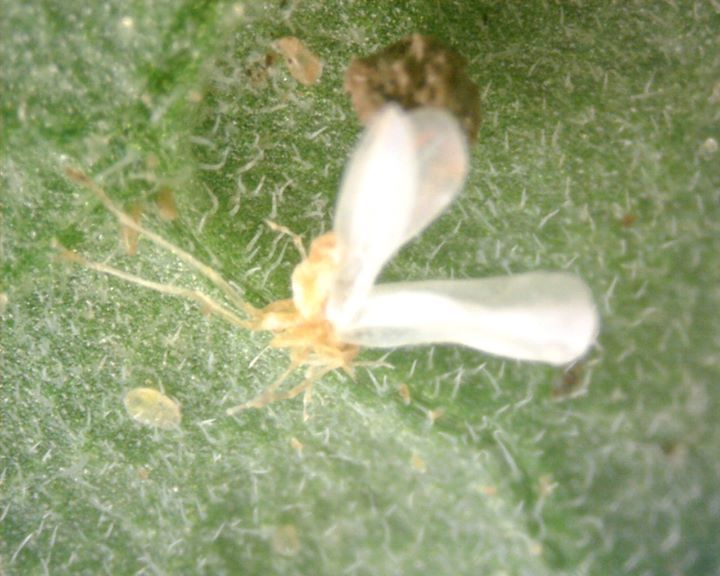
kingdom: Animalia
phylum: Arthropoda
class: Insecta
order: Hemiptera
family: Aleyrodidae
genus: Bemisia
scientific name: Bemisia tabaci
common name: Sweetpotato whitefly
